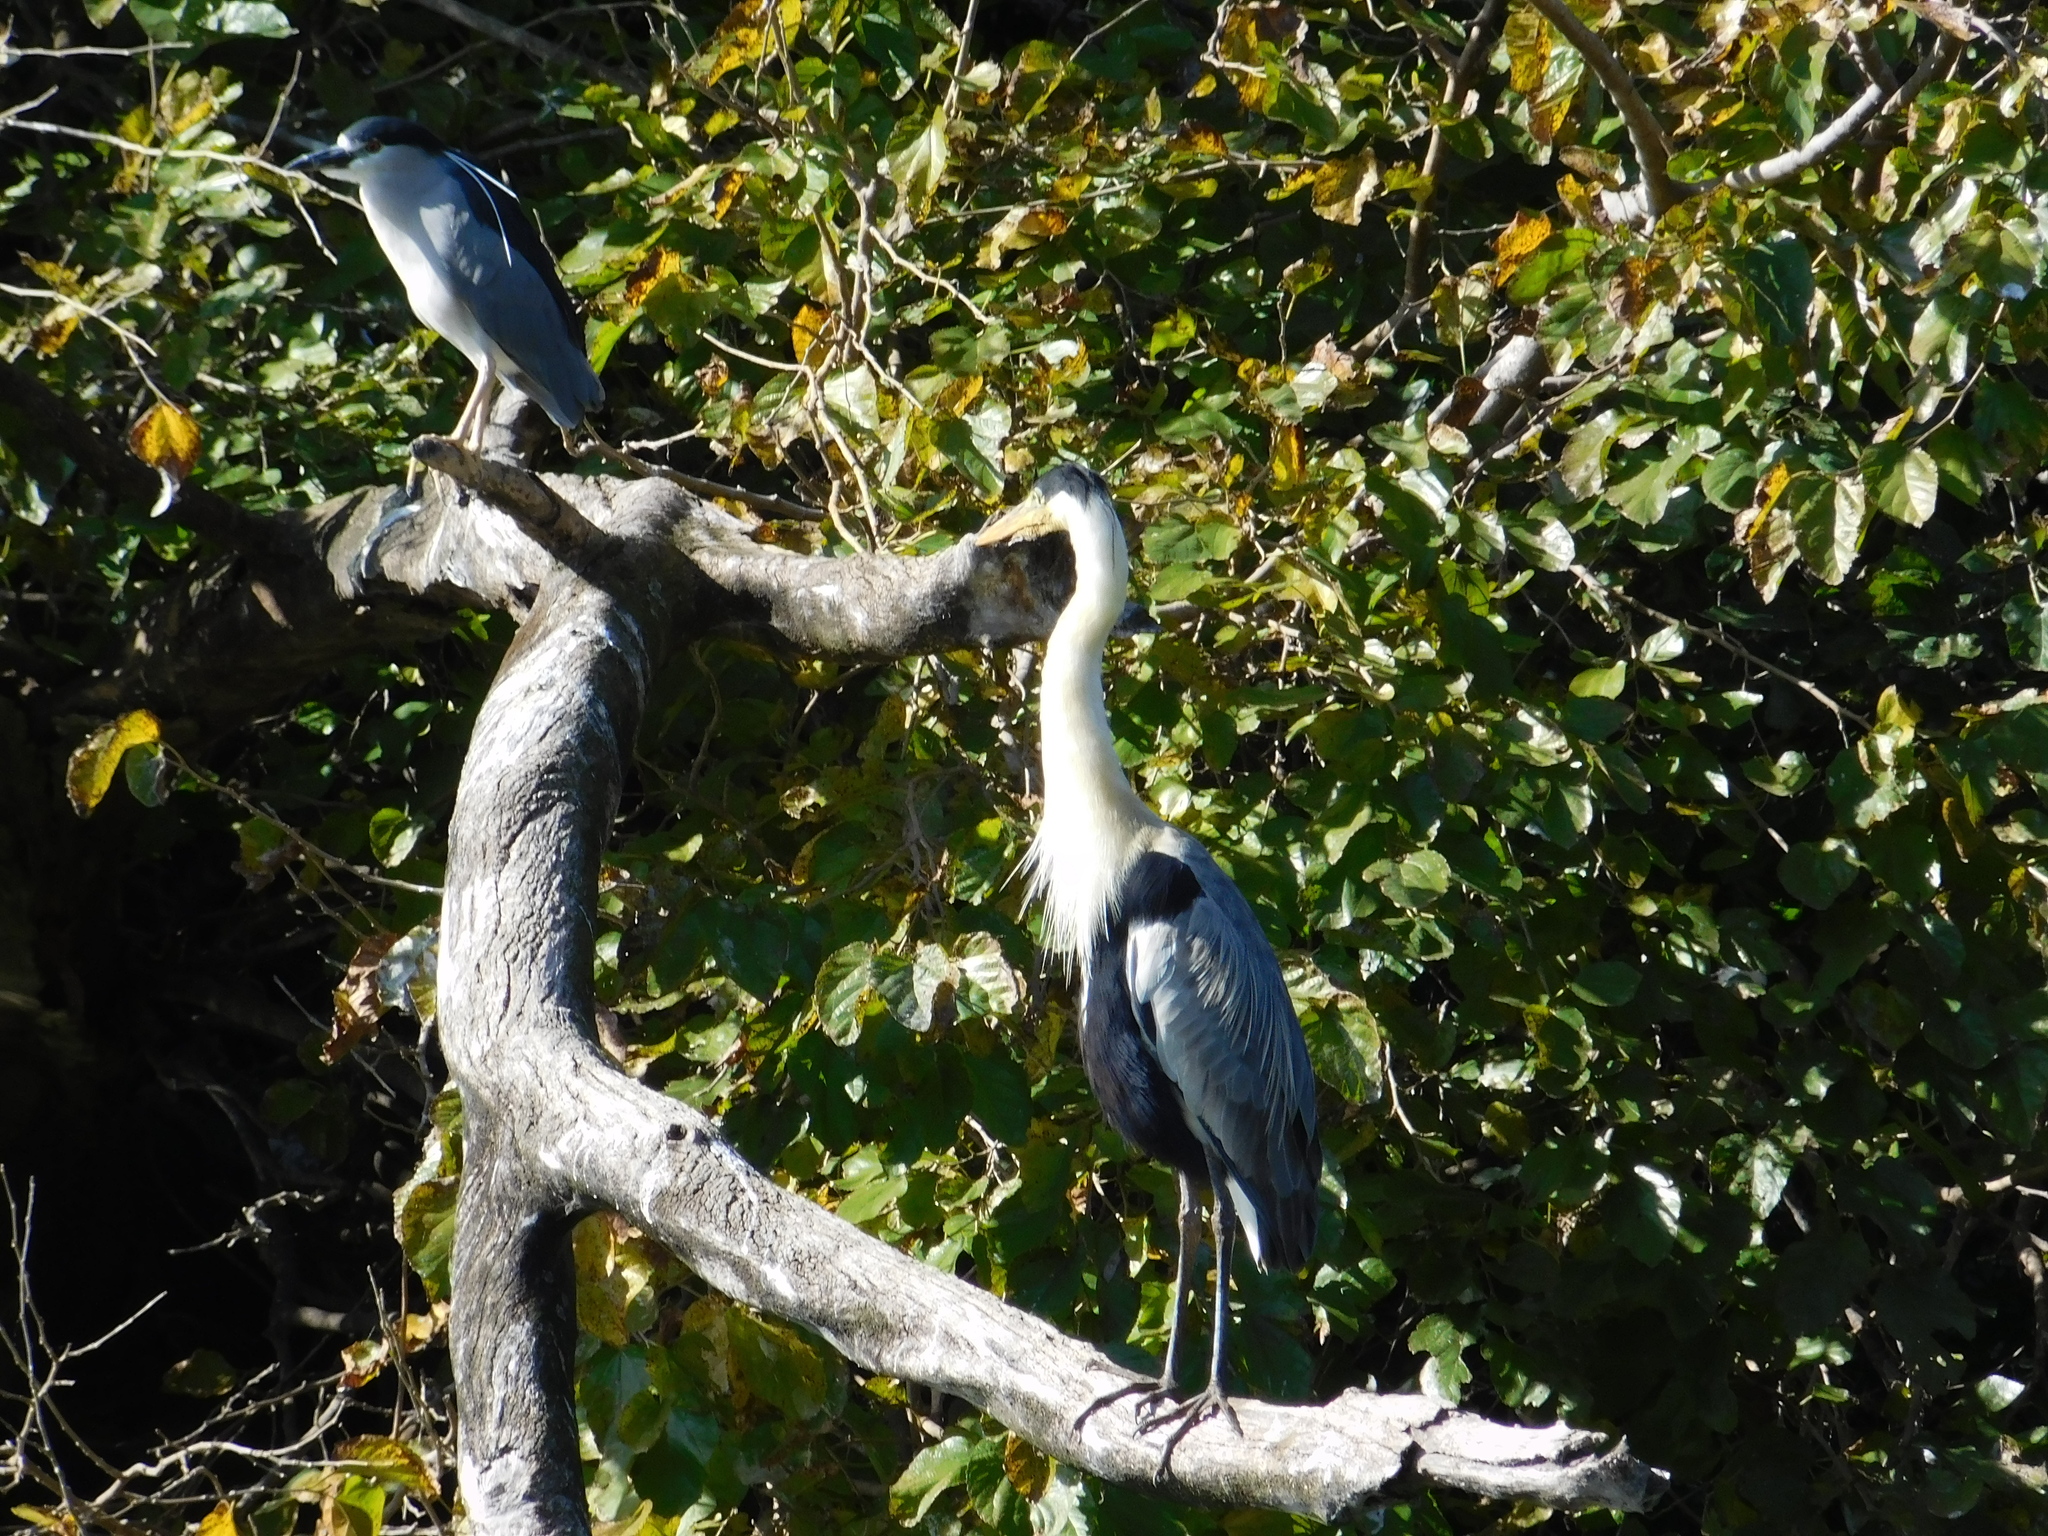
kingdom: Animalia
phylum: Chordata
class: Aves
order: Pelecaniformes
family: Ardeidae
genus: Ardea
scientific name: Ardea cocoi
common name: Cocoi heron
